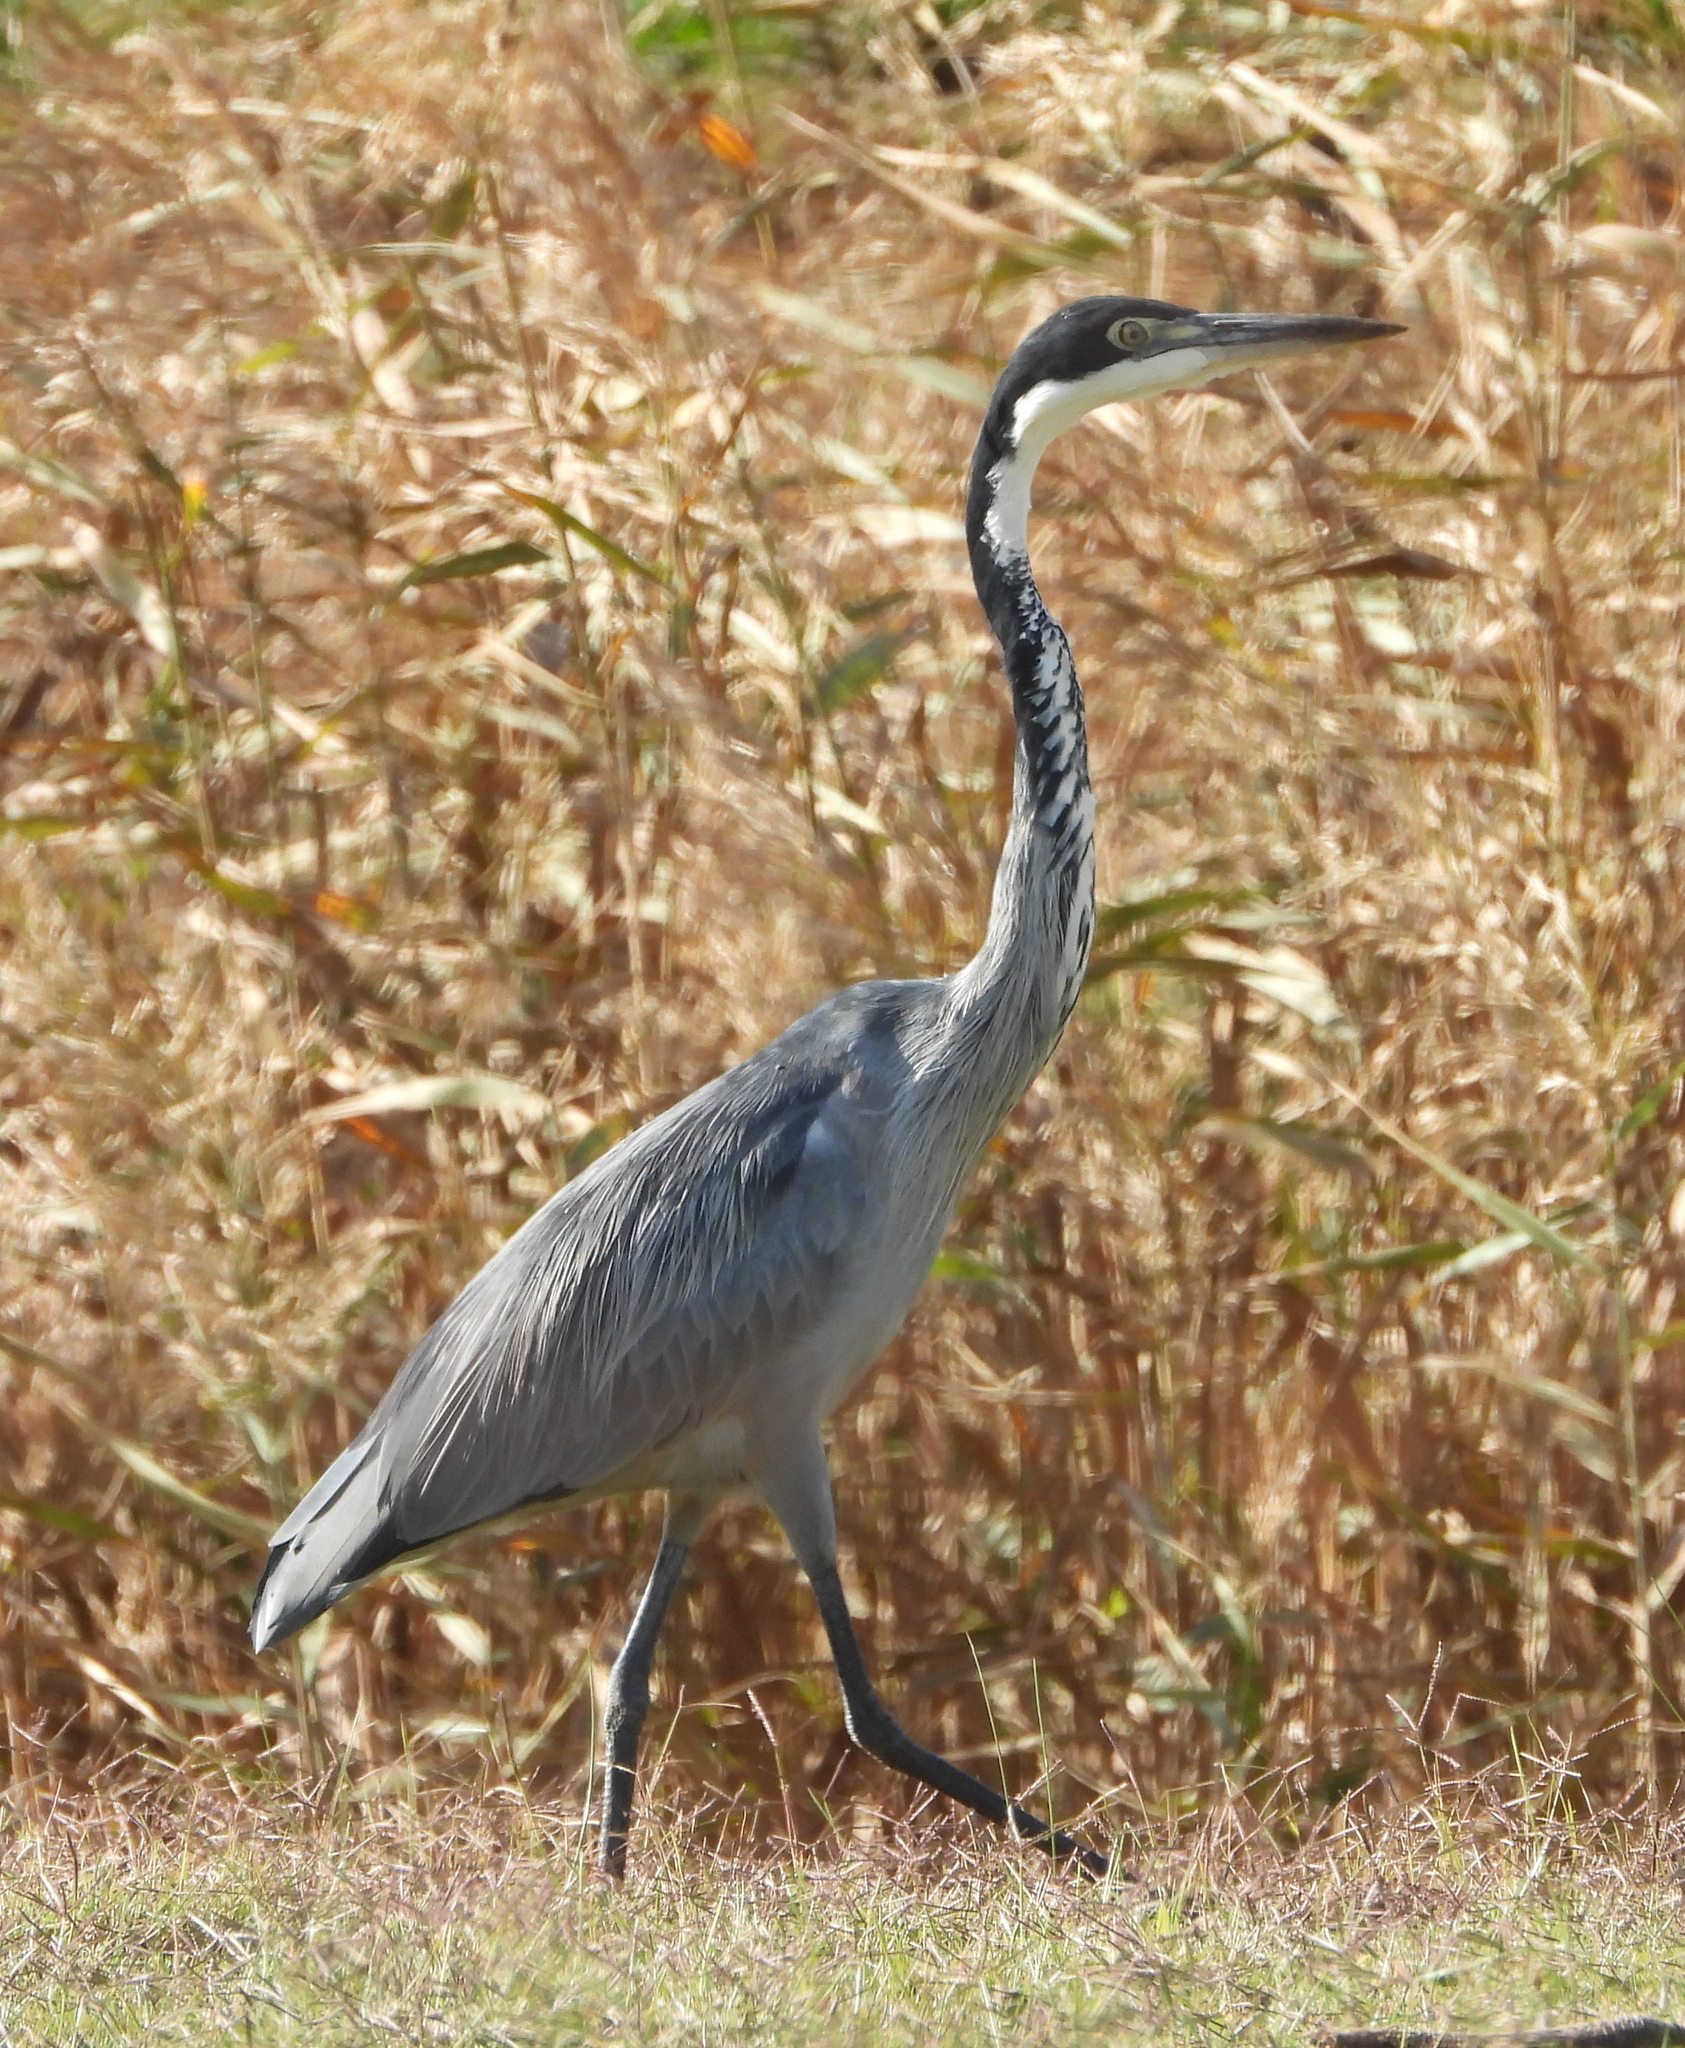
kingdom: Animalia
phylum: Chordata
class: Aves
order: Pelecaniformes
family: Ardeidae
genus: Ardea
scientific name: Ardea melanocephala
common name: Black-headed heron
